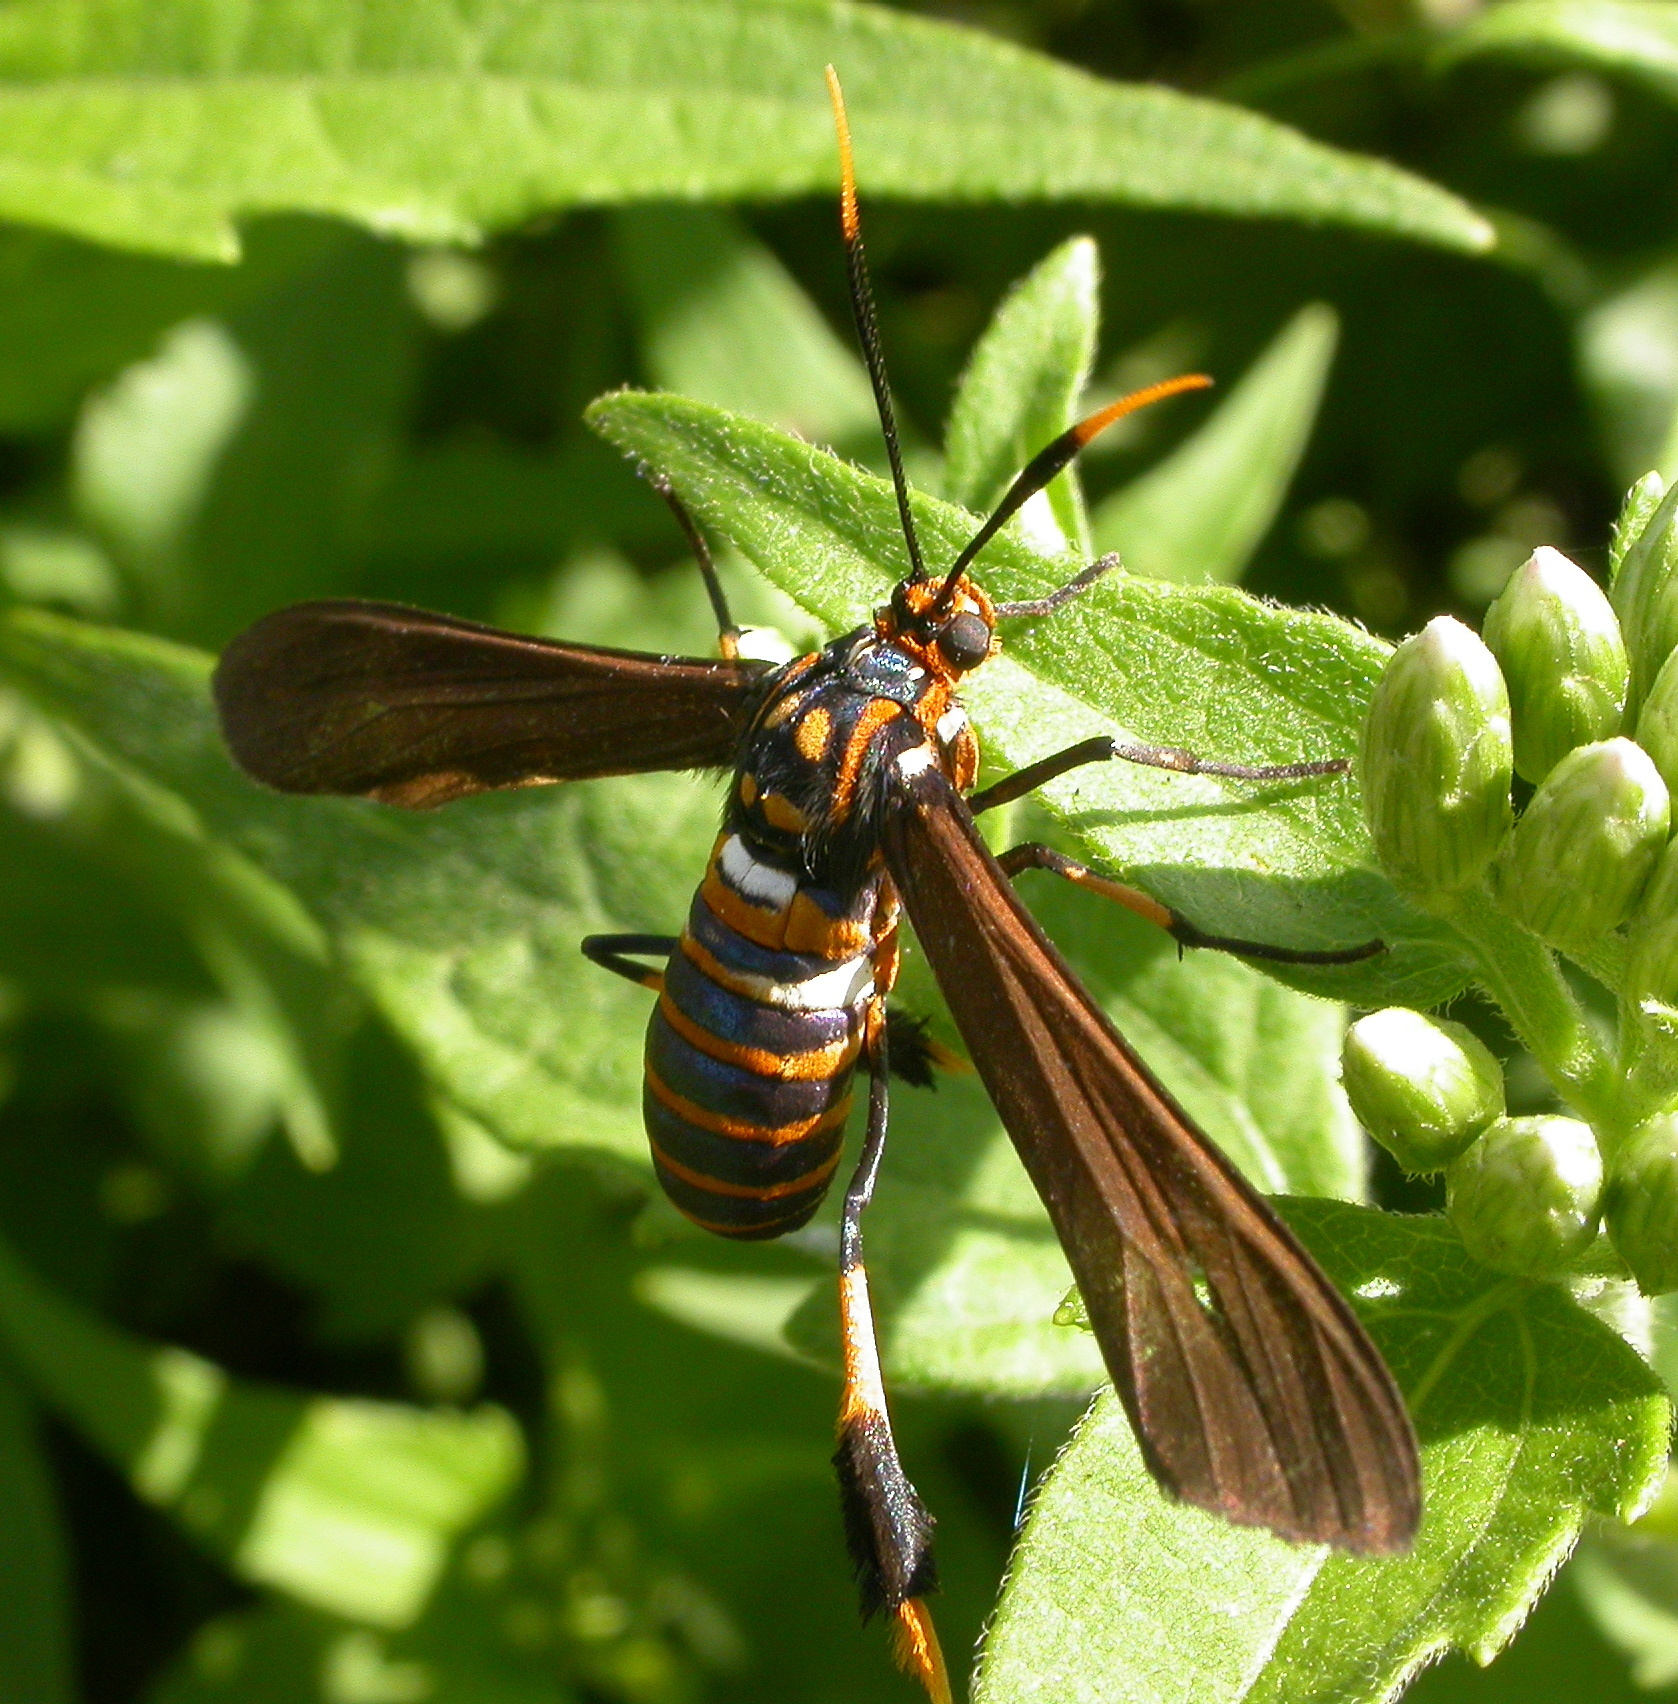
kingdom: Animalia
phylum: Arthropoda
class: Insecta
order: Lepidoptera
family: Erebidae
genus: Horama
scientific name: Horama panthalon
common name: Texas wasp moth
